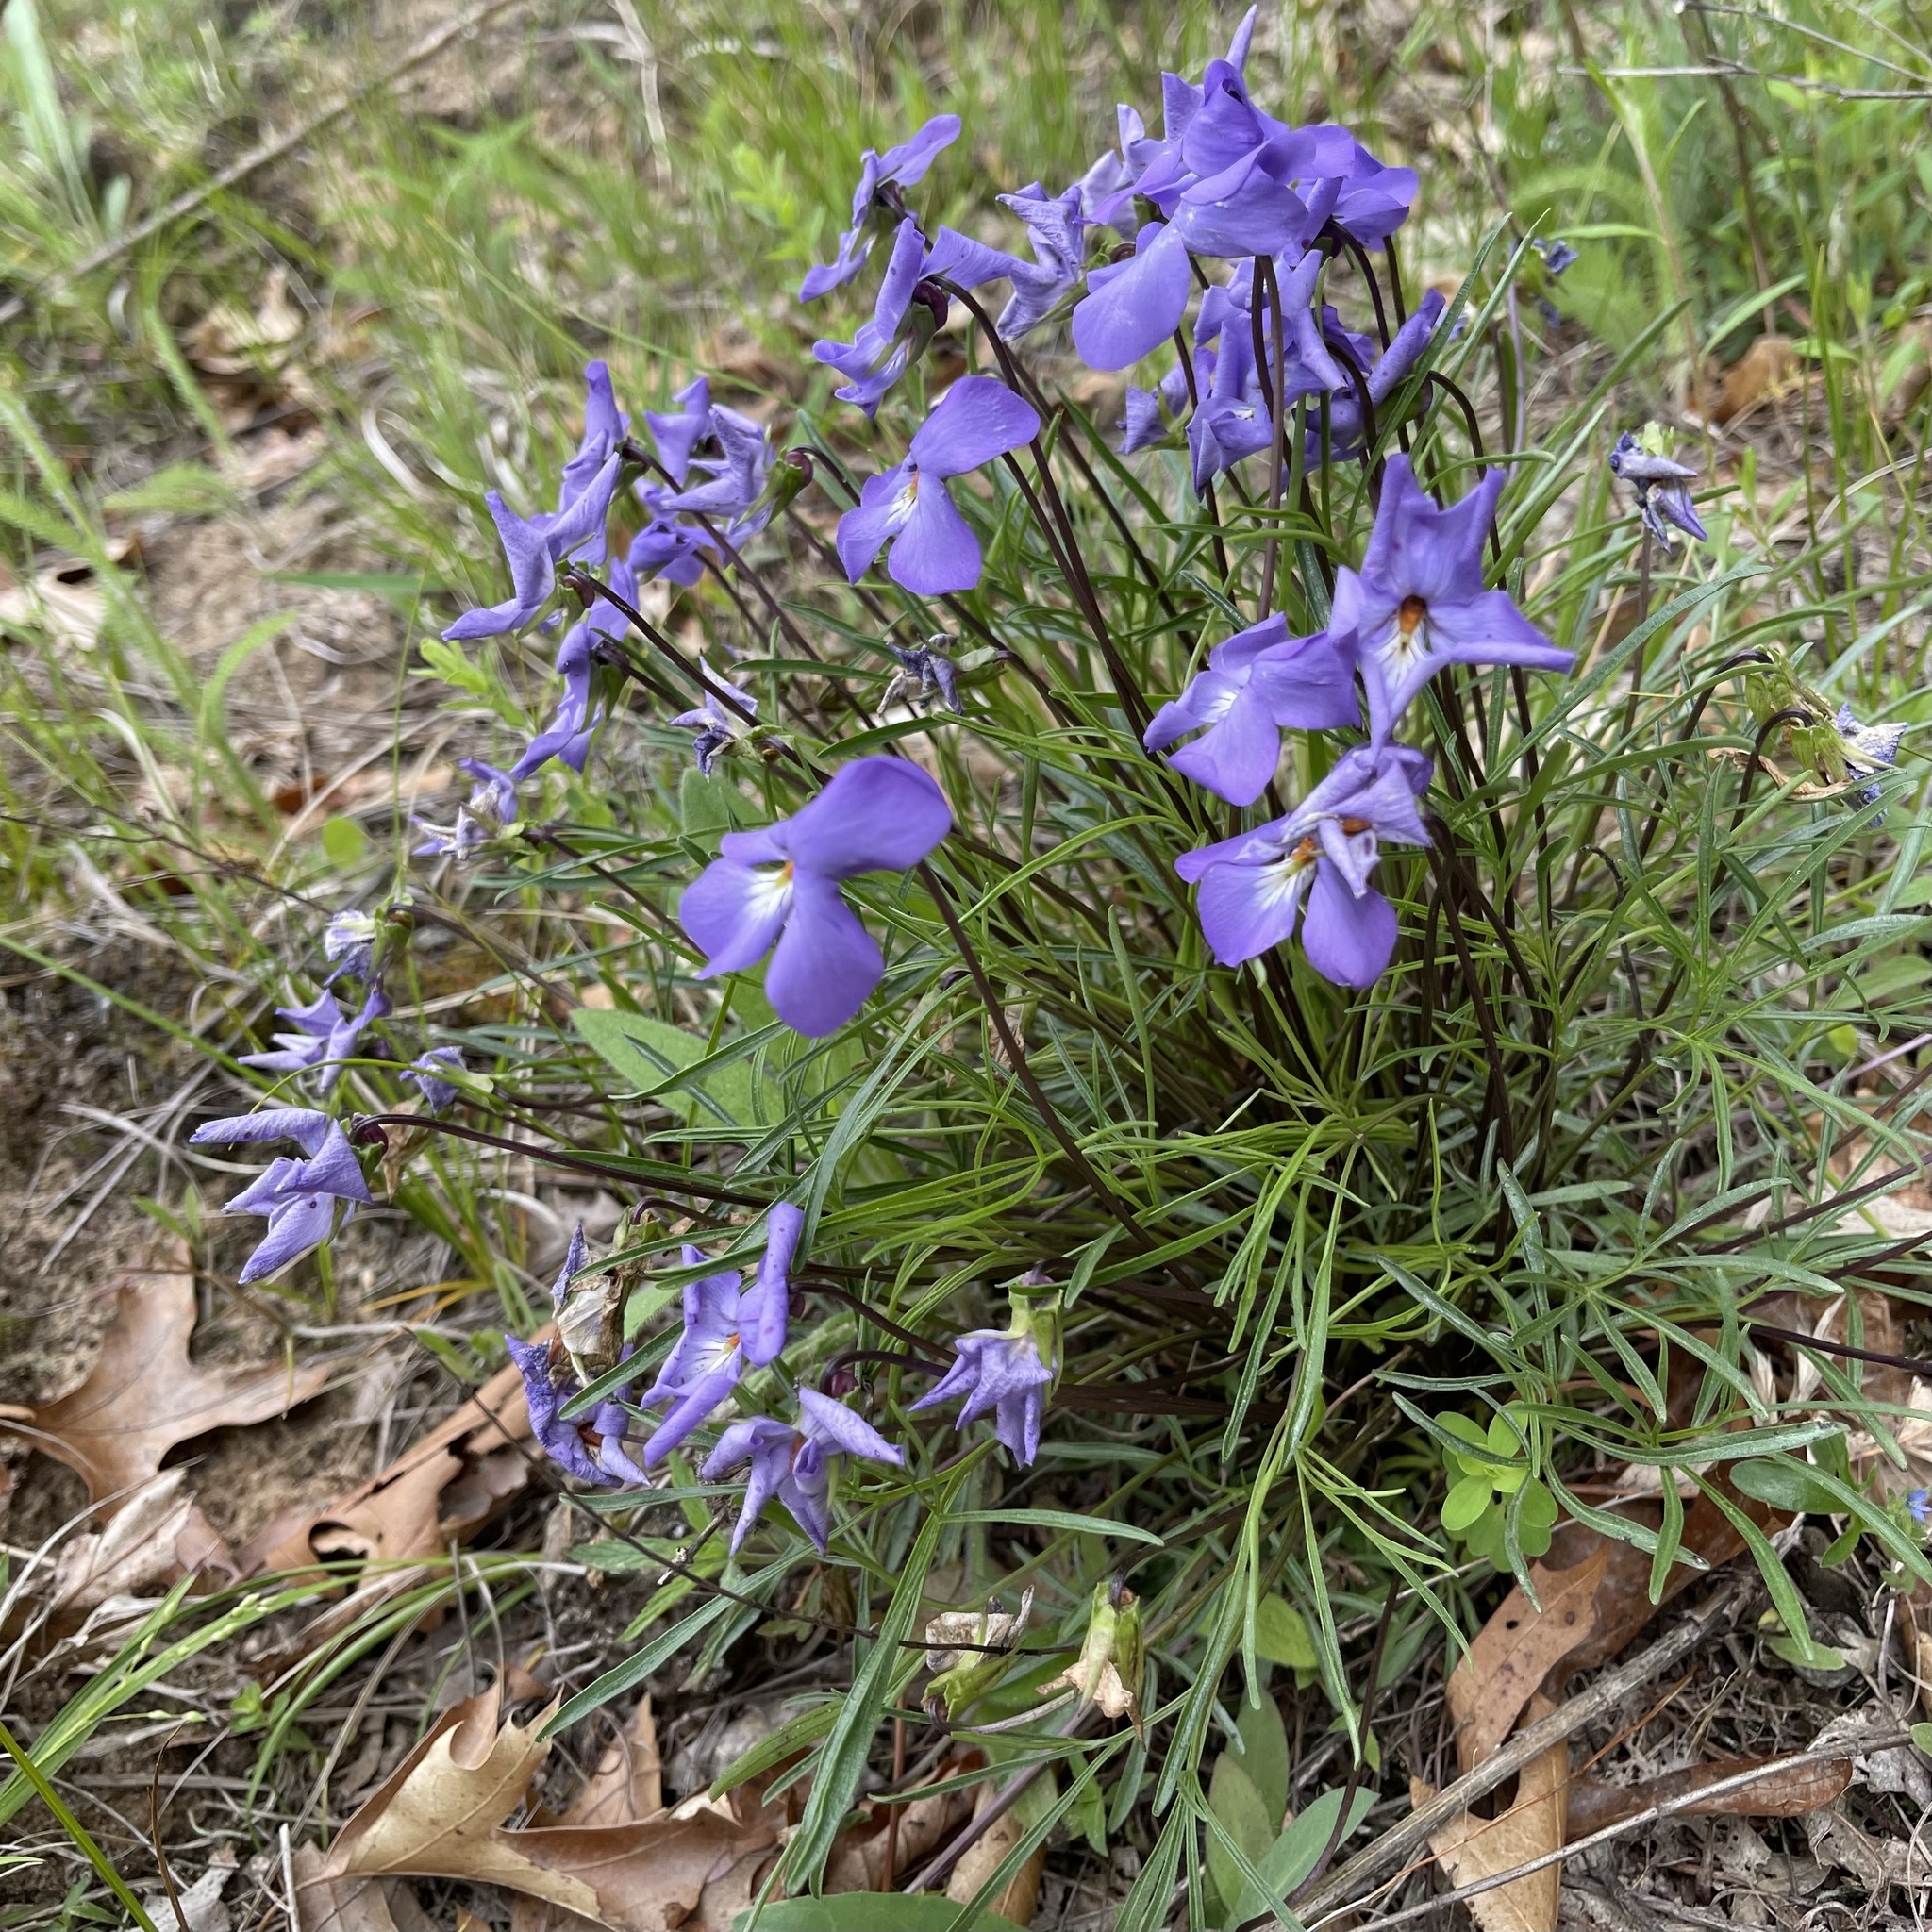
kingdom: Plantae
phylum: Tracheophyta
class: Magnoliopsida
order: Malpighiales
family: Violaceae
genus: Viola
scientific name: Viola pedata
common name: Pansy violet
